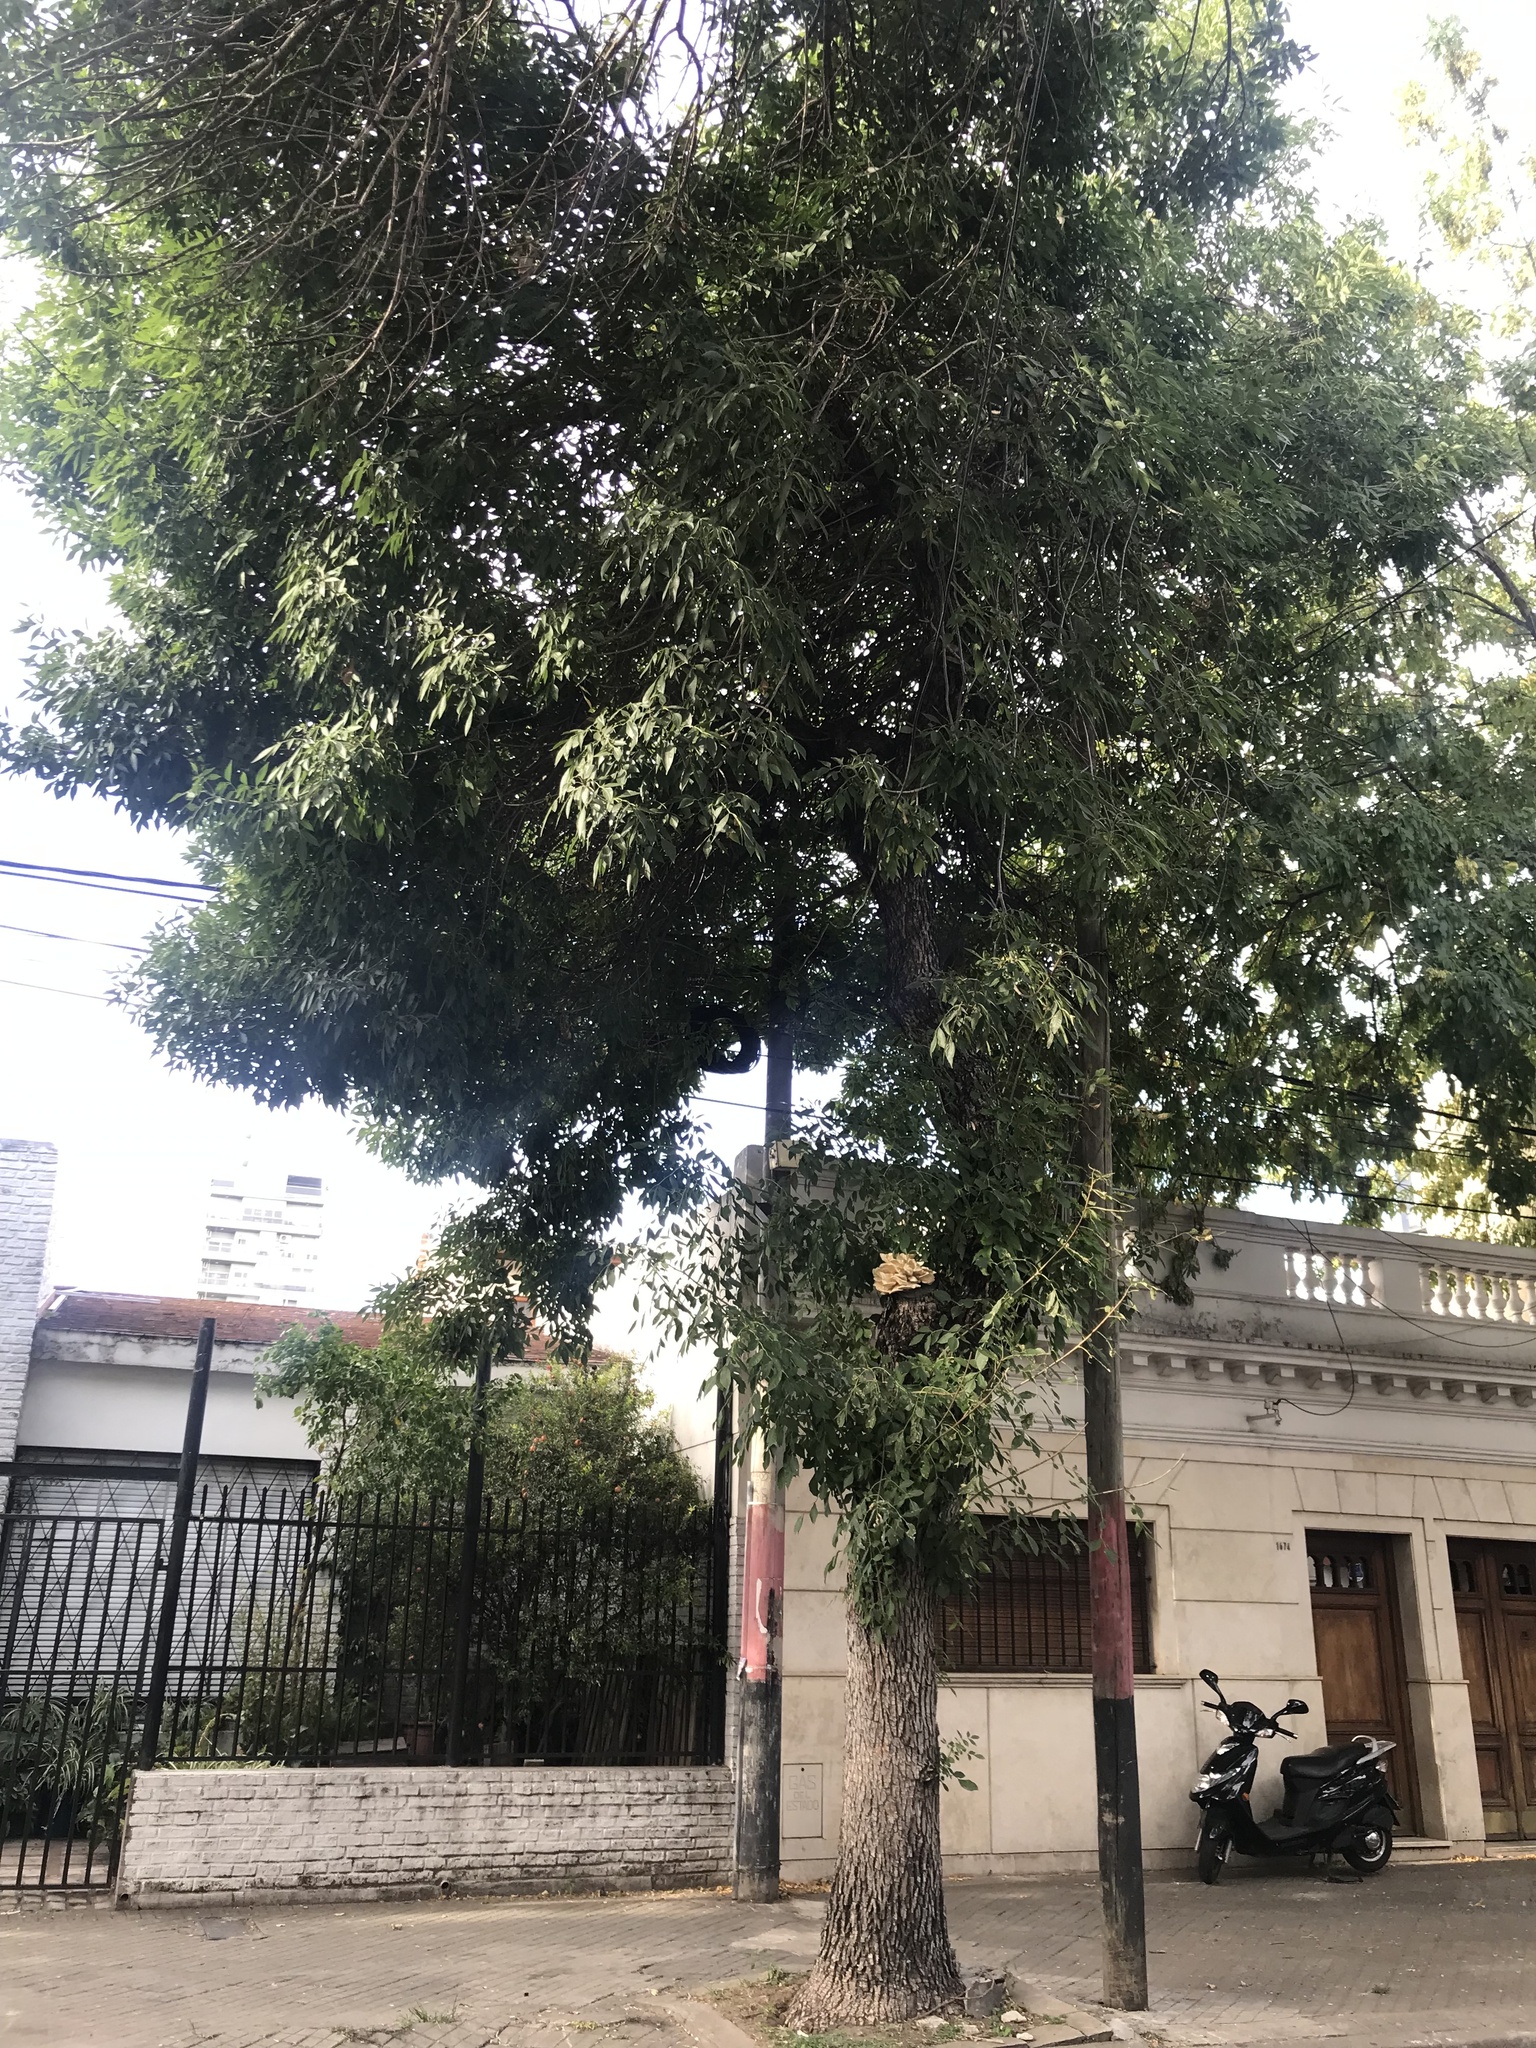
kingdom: Fungi
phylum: Basidiomycota
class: Agaricomycetes
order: Polyporales
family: Laetiporaceae
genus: Laetiporus
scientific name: Laetiporus sulphureus
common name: Chicken of the woods
